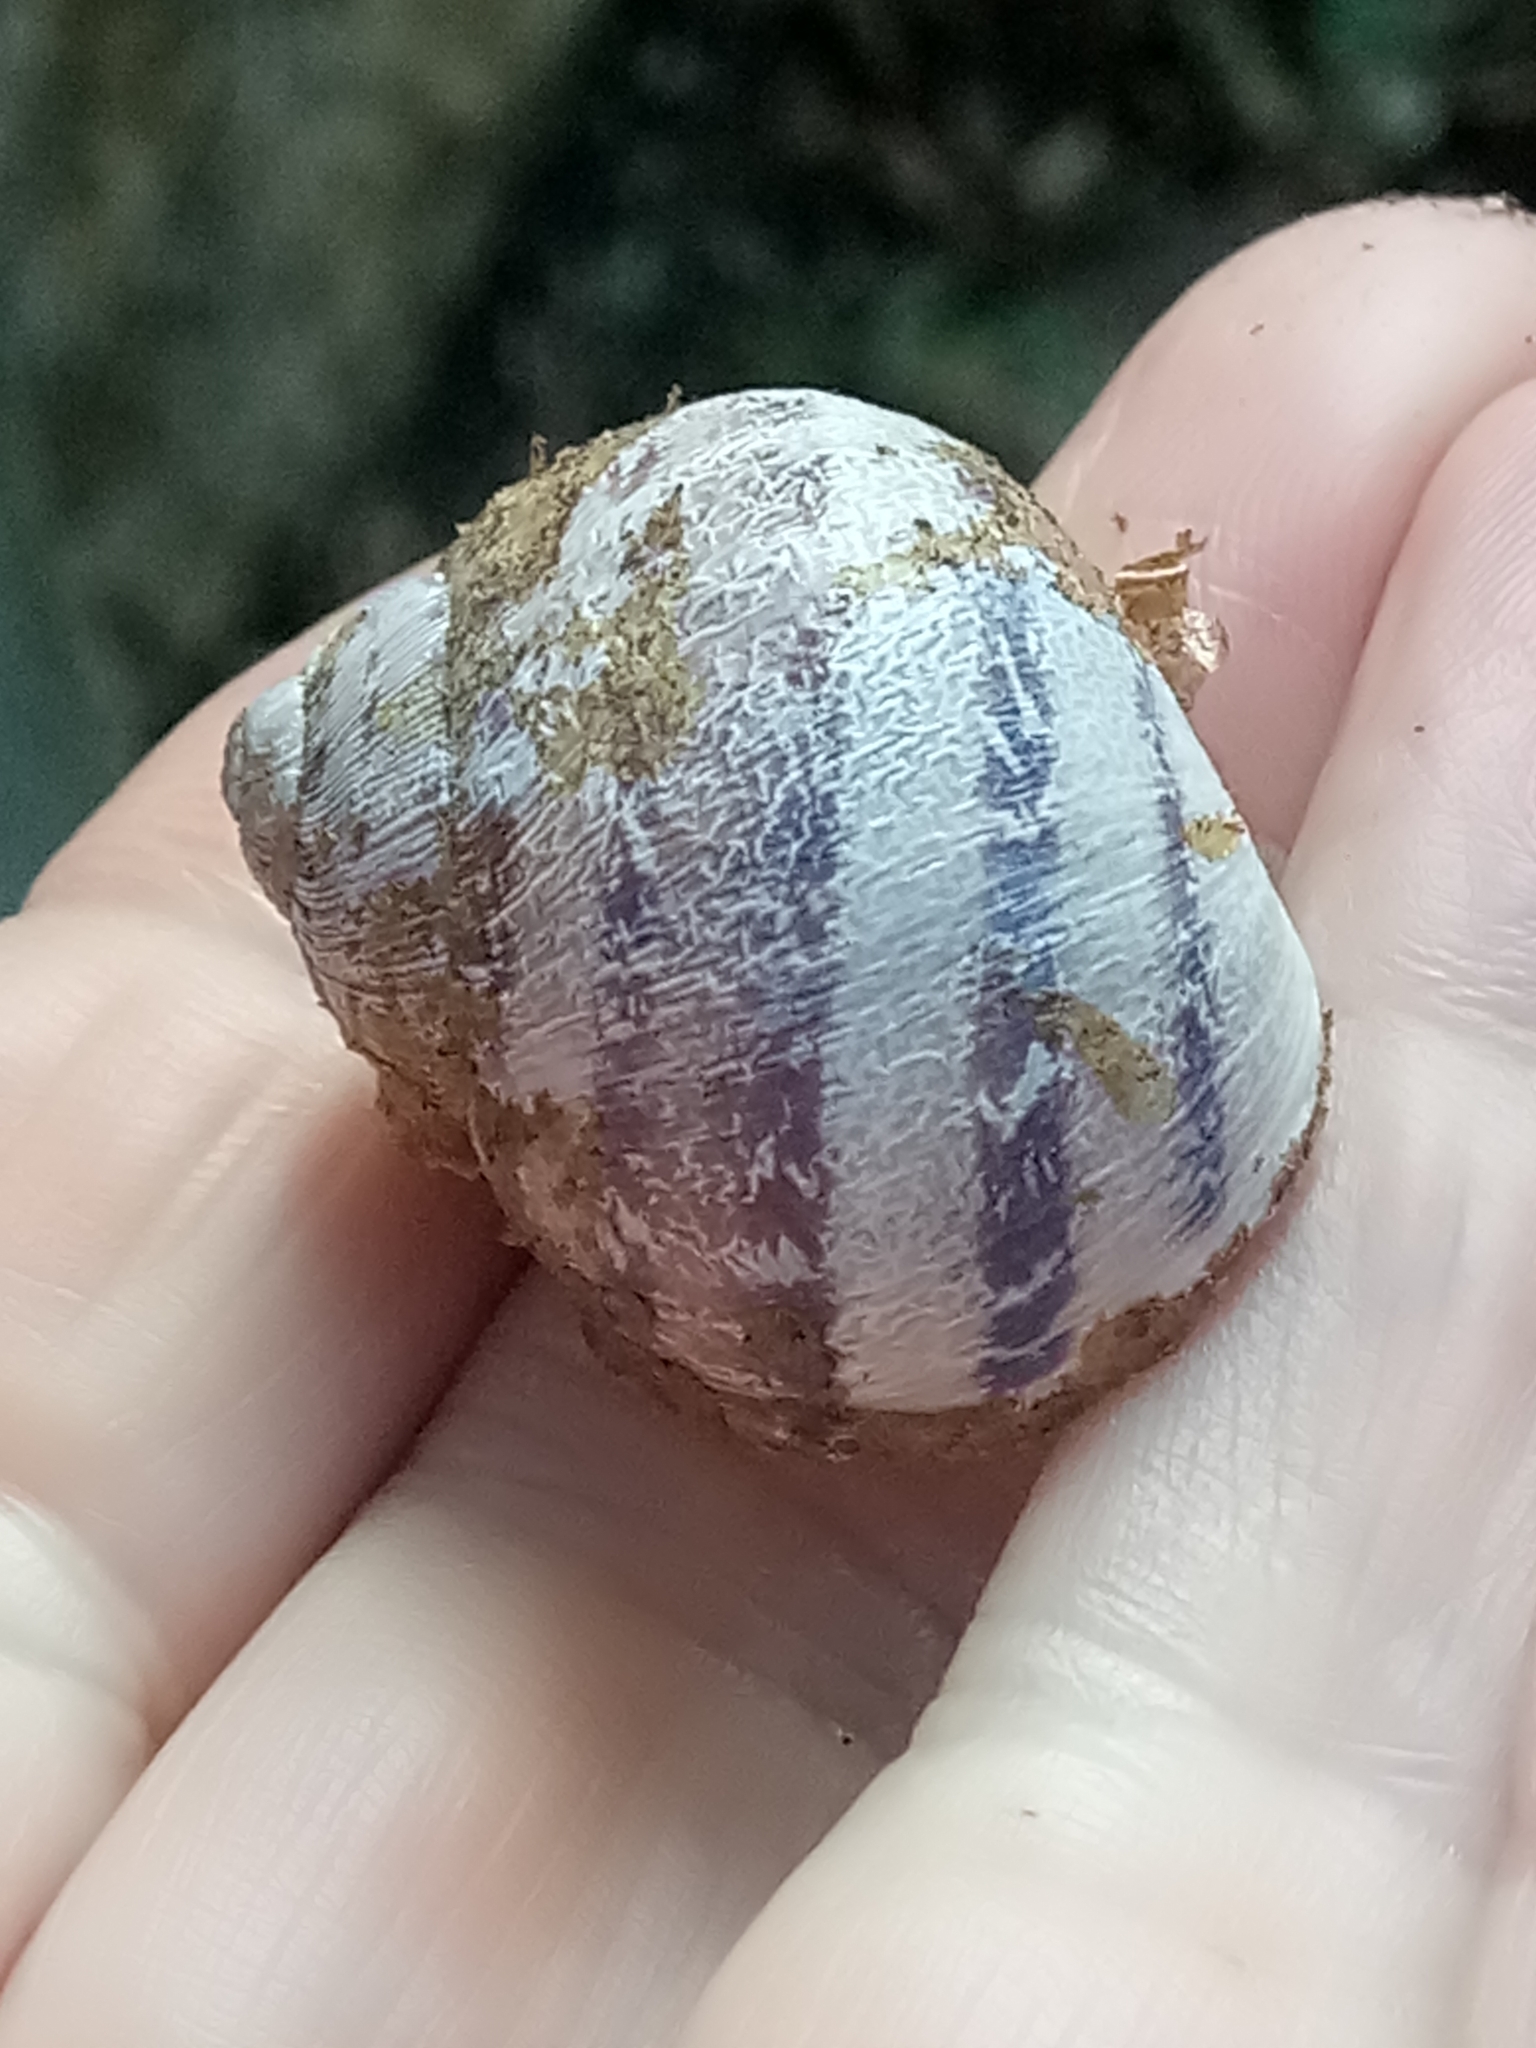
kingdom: Animalia
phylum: Mollusca
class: Gastropoda
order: Stylommatophora
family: Helicidae
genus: Cornu
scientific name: Cornu aspersum
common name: Brown garden snail
